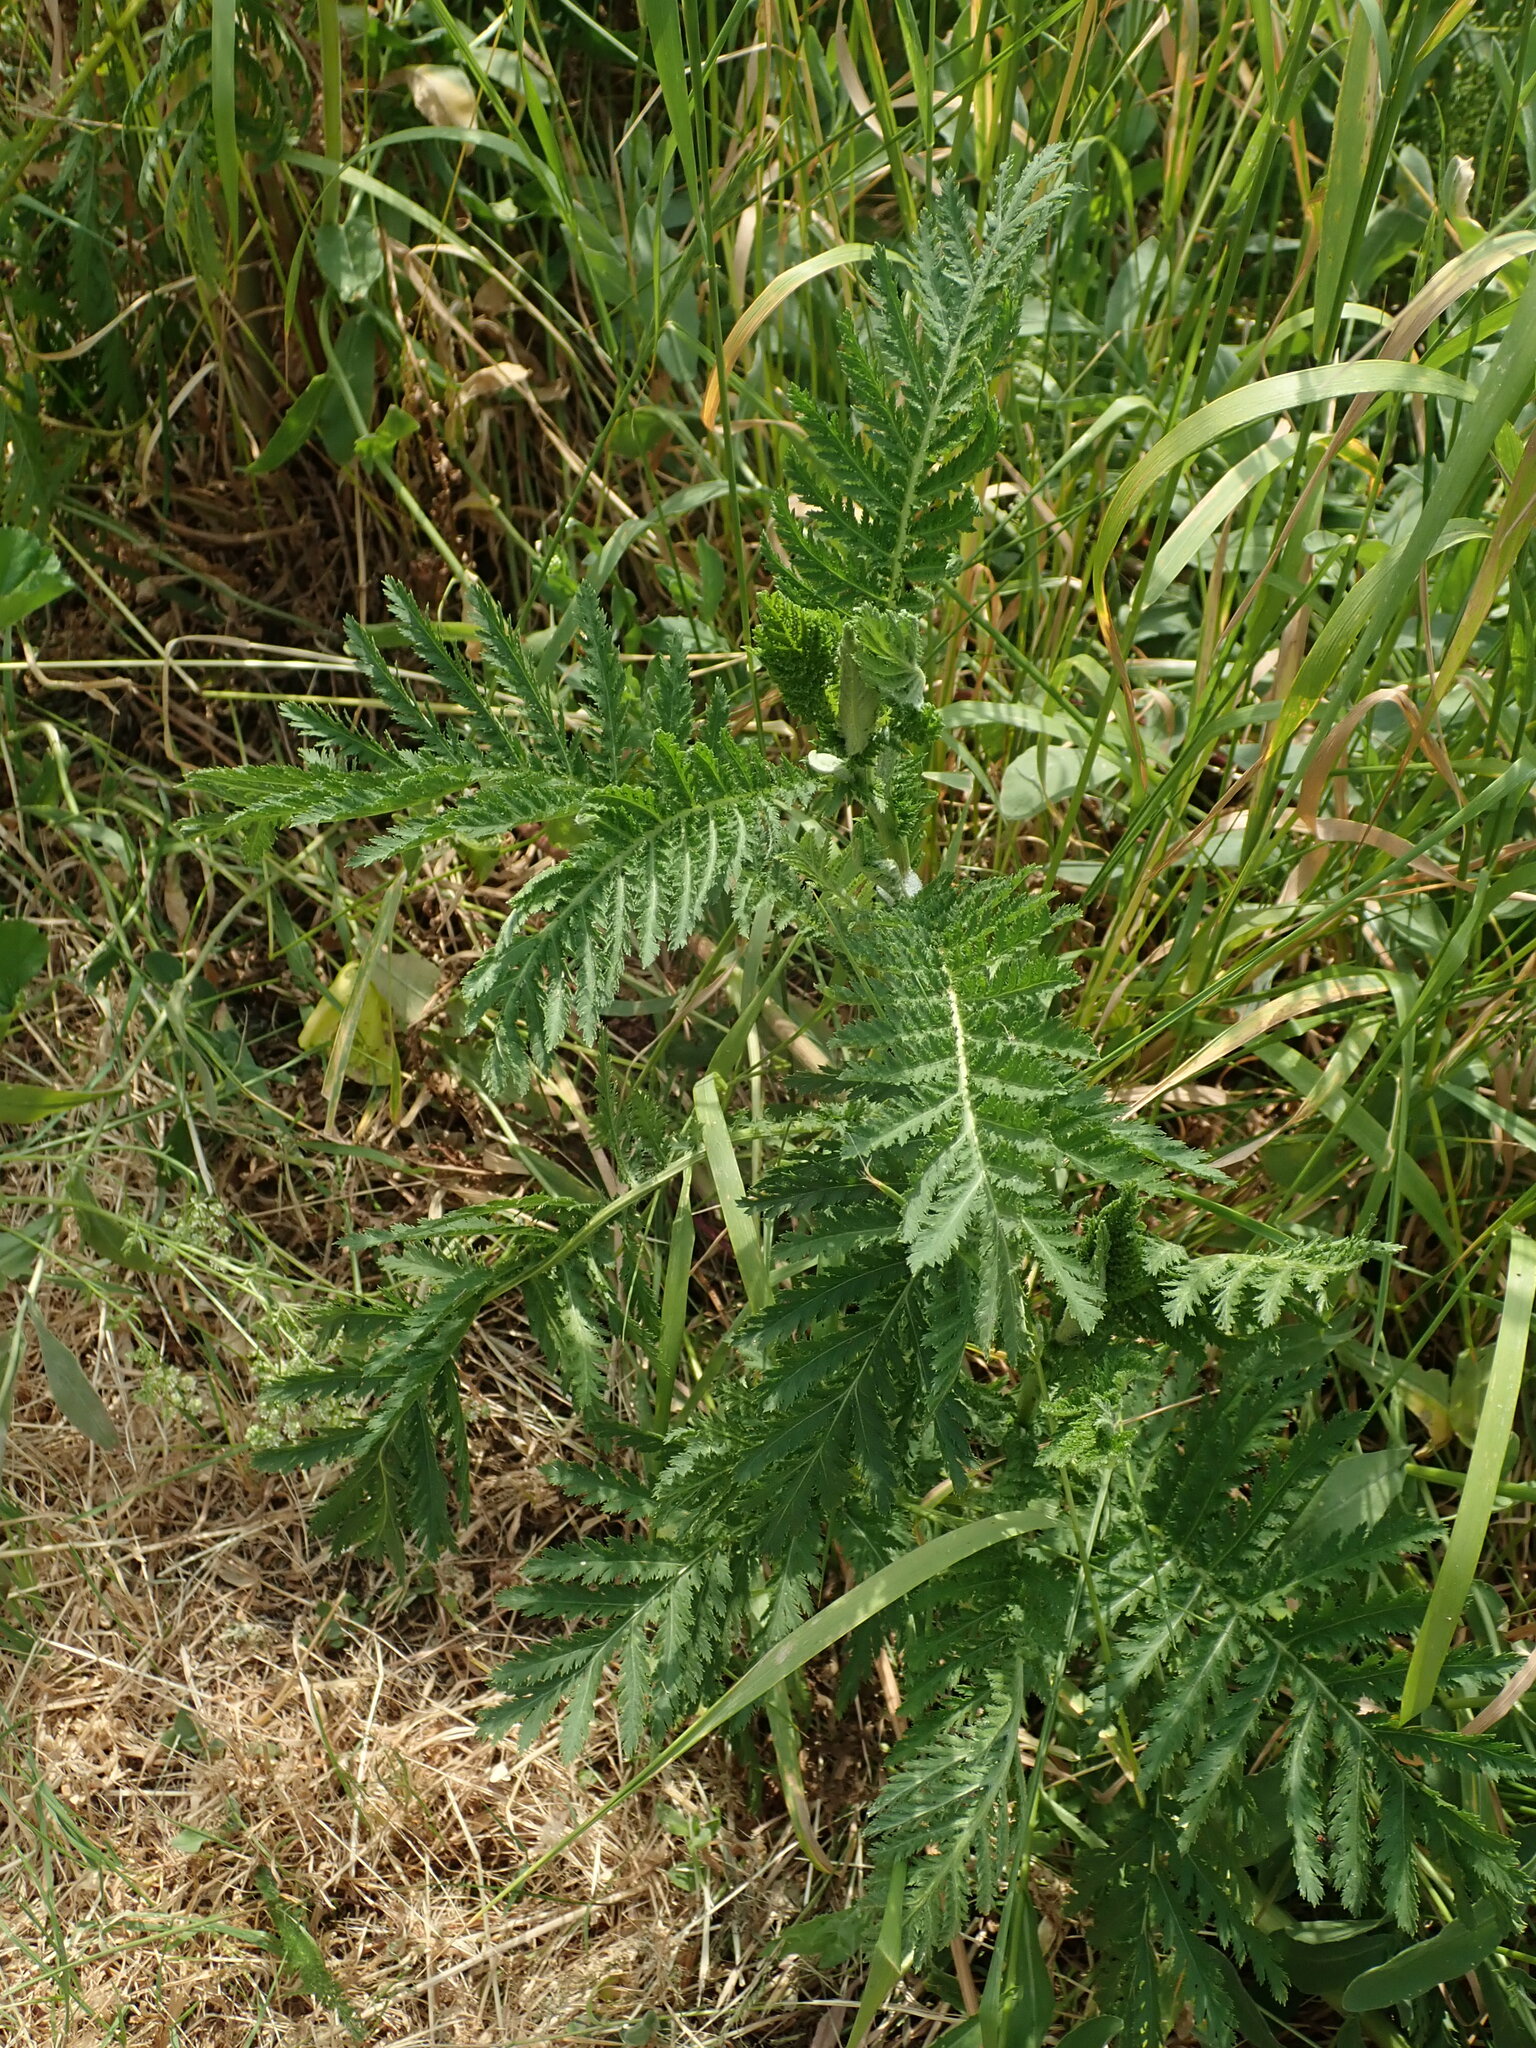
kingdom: Plantae
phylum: Tracheophyta
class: Magnoliopsida
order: Asterales
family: Asteraceae
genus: Tanacetum
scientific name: Tanacetum vulgare
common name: Common tansy
